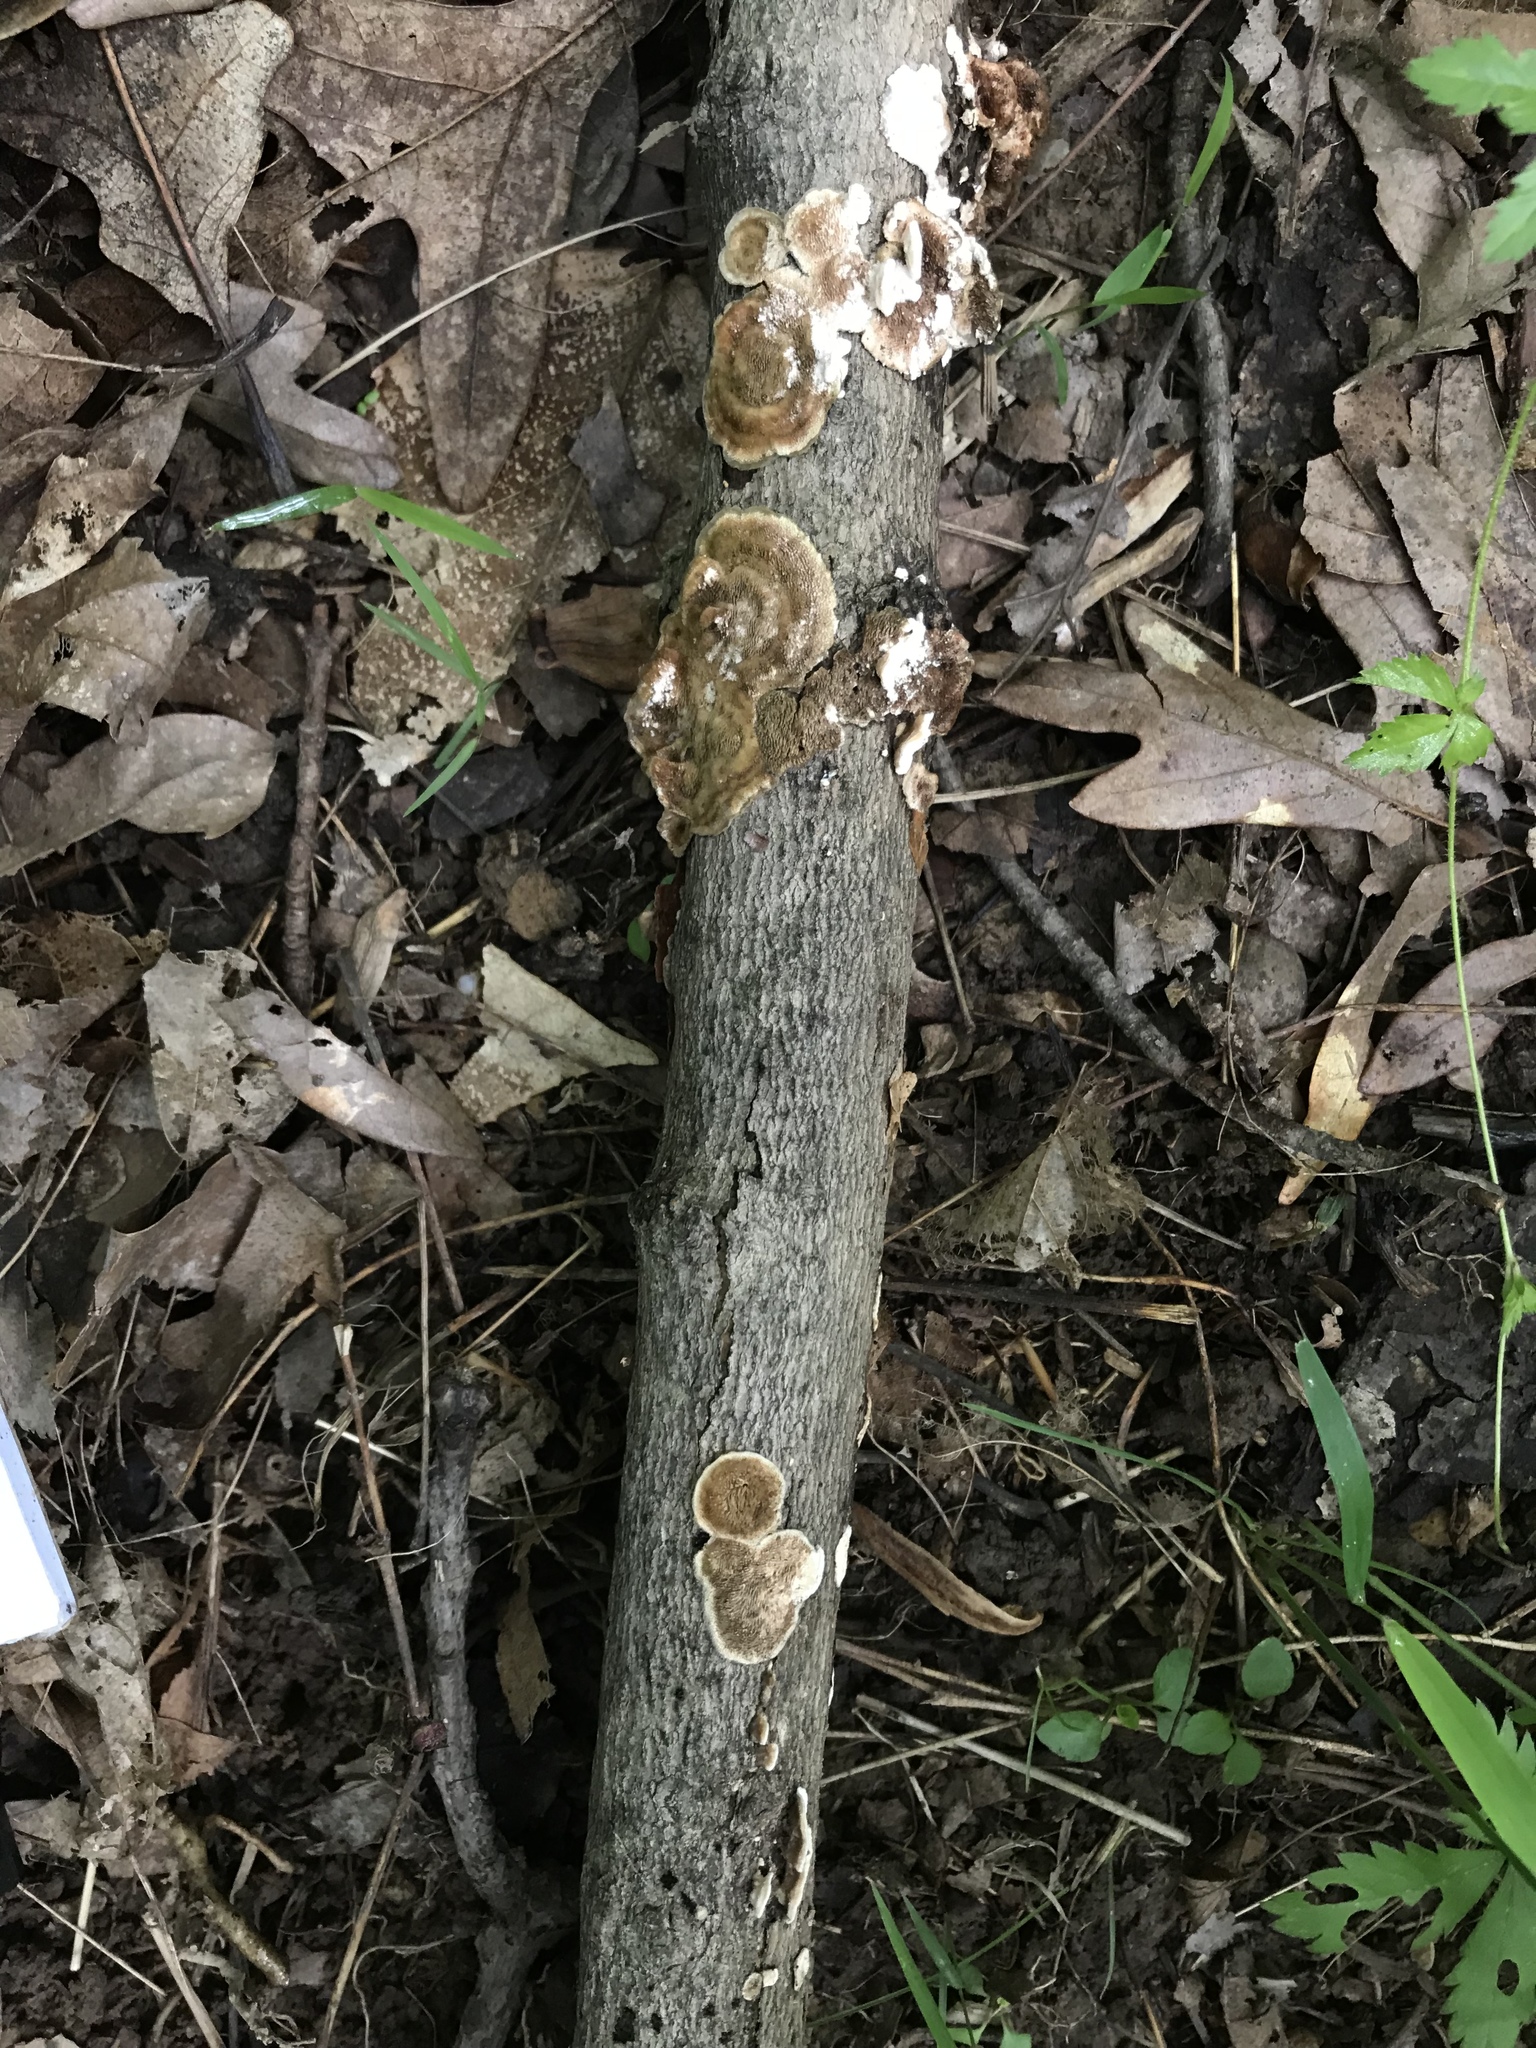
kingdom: Fungi
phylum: Basidiomycota
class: Agaricomycetes
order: Polyporales
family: Steccherinaceae
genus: Steccherinum
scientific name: Steccherinum bourdotii
